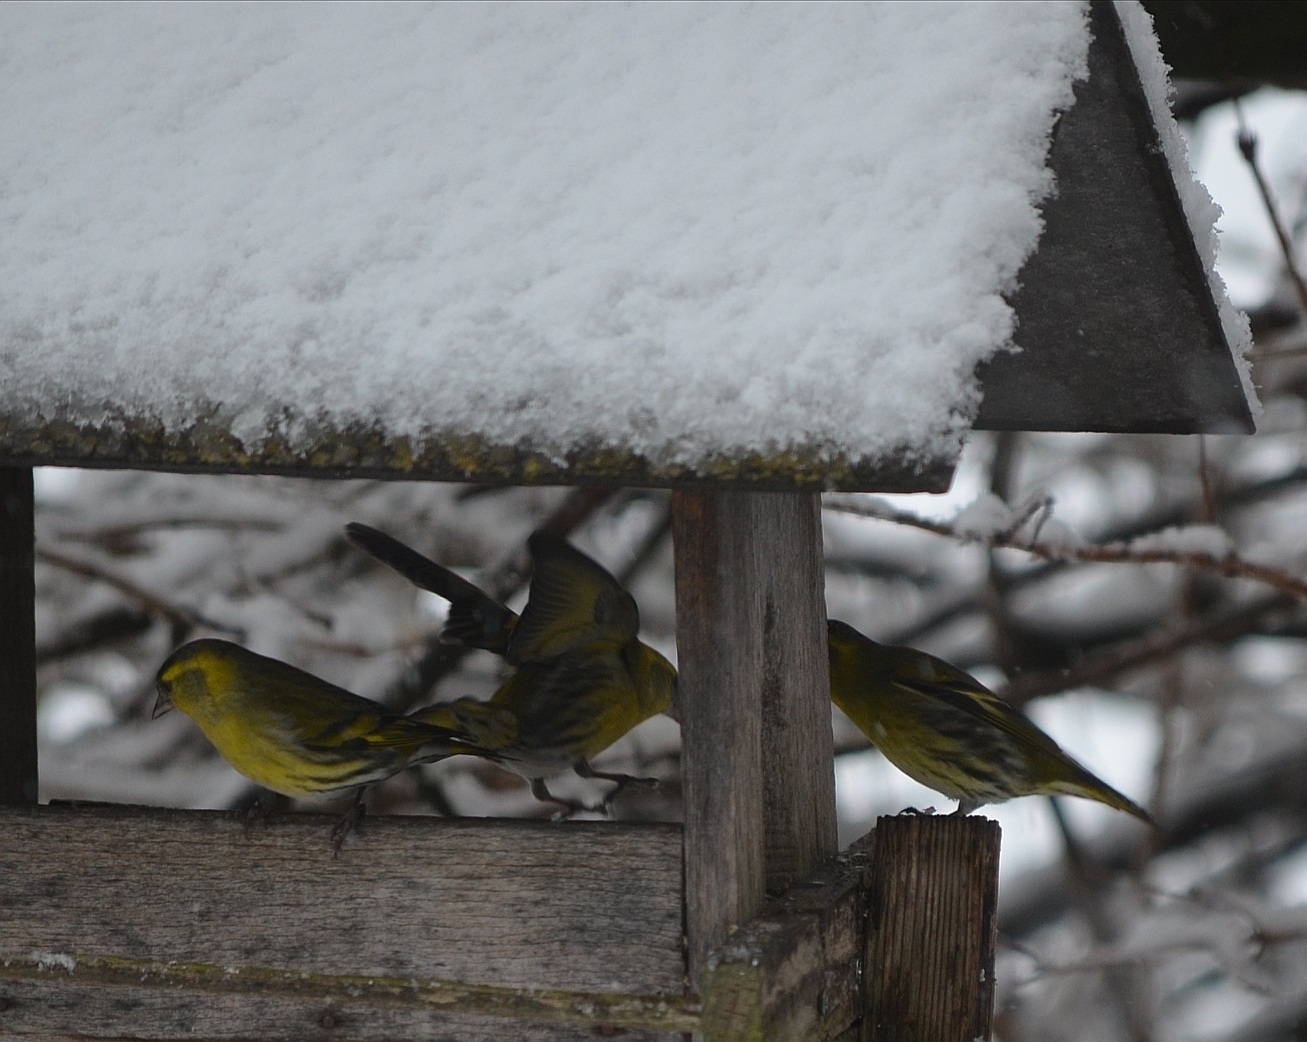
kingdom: Animalia
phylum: Chordata
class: Aves
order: Passeriformes
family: Fringillidae
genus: Spinus
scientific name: Spinus spinus
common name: Eurasian siskin
